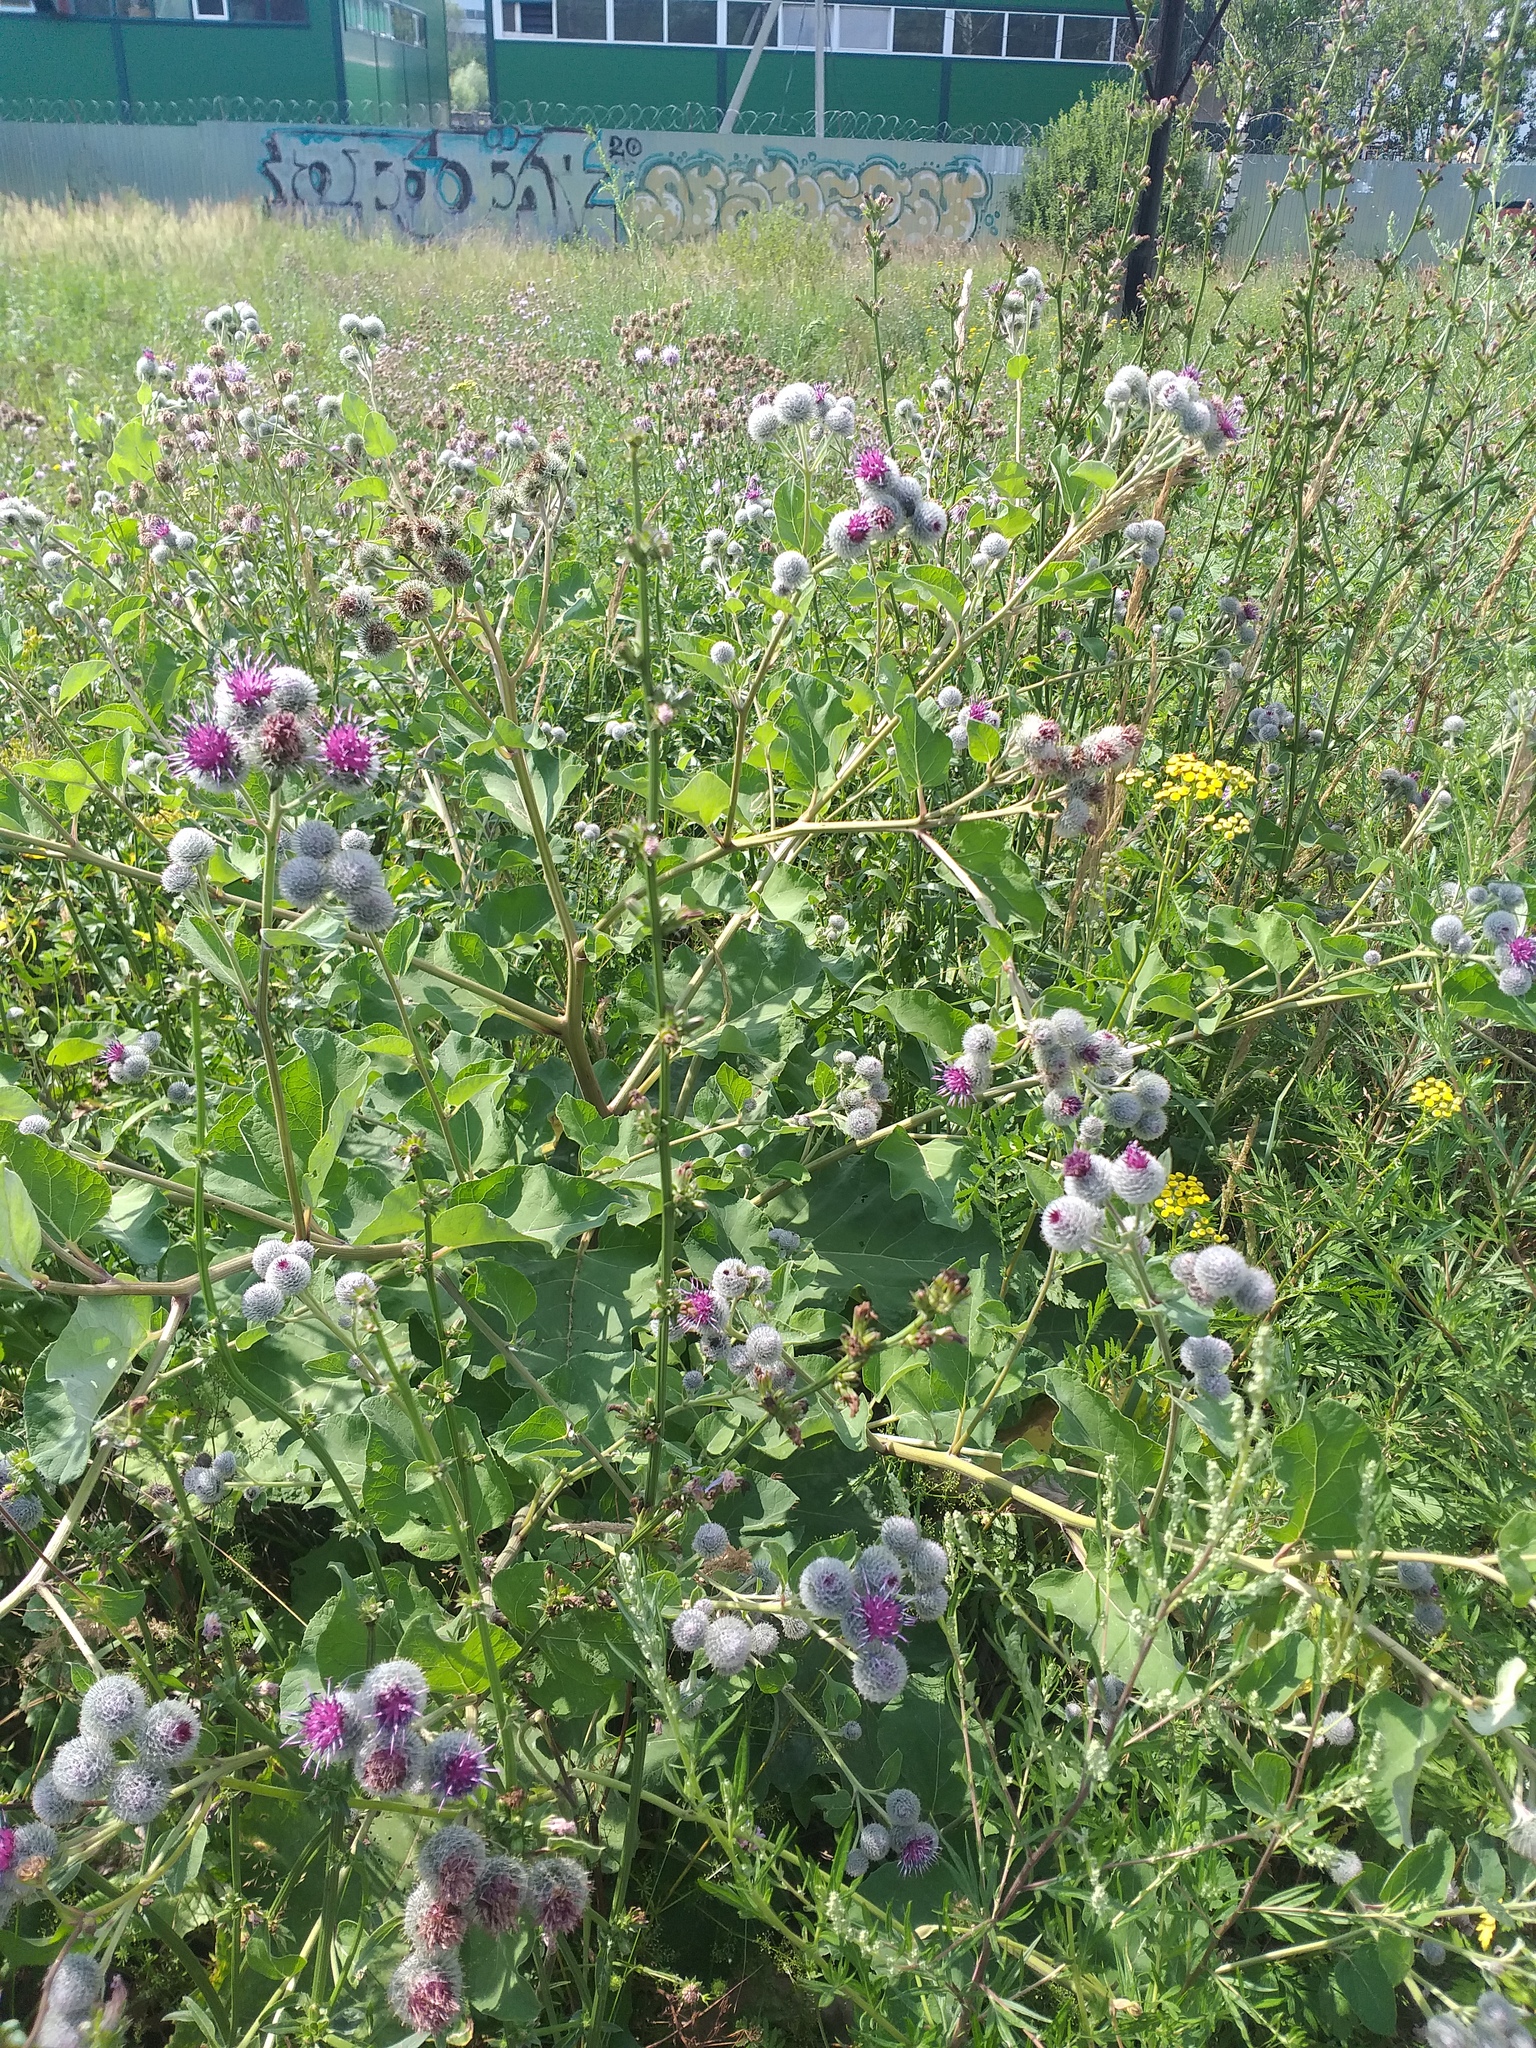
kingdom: Plantae
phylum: Tracheophyta
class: Magnoliopsida
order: Asterales
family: Asteraceae
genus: Arctium
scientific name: Arctium tomentosum
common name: Woolly burdock
